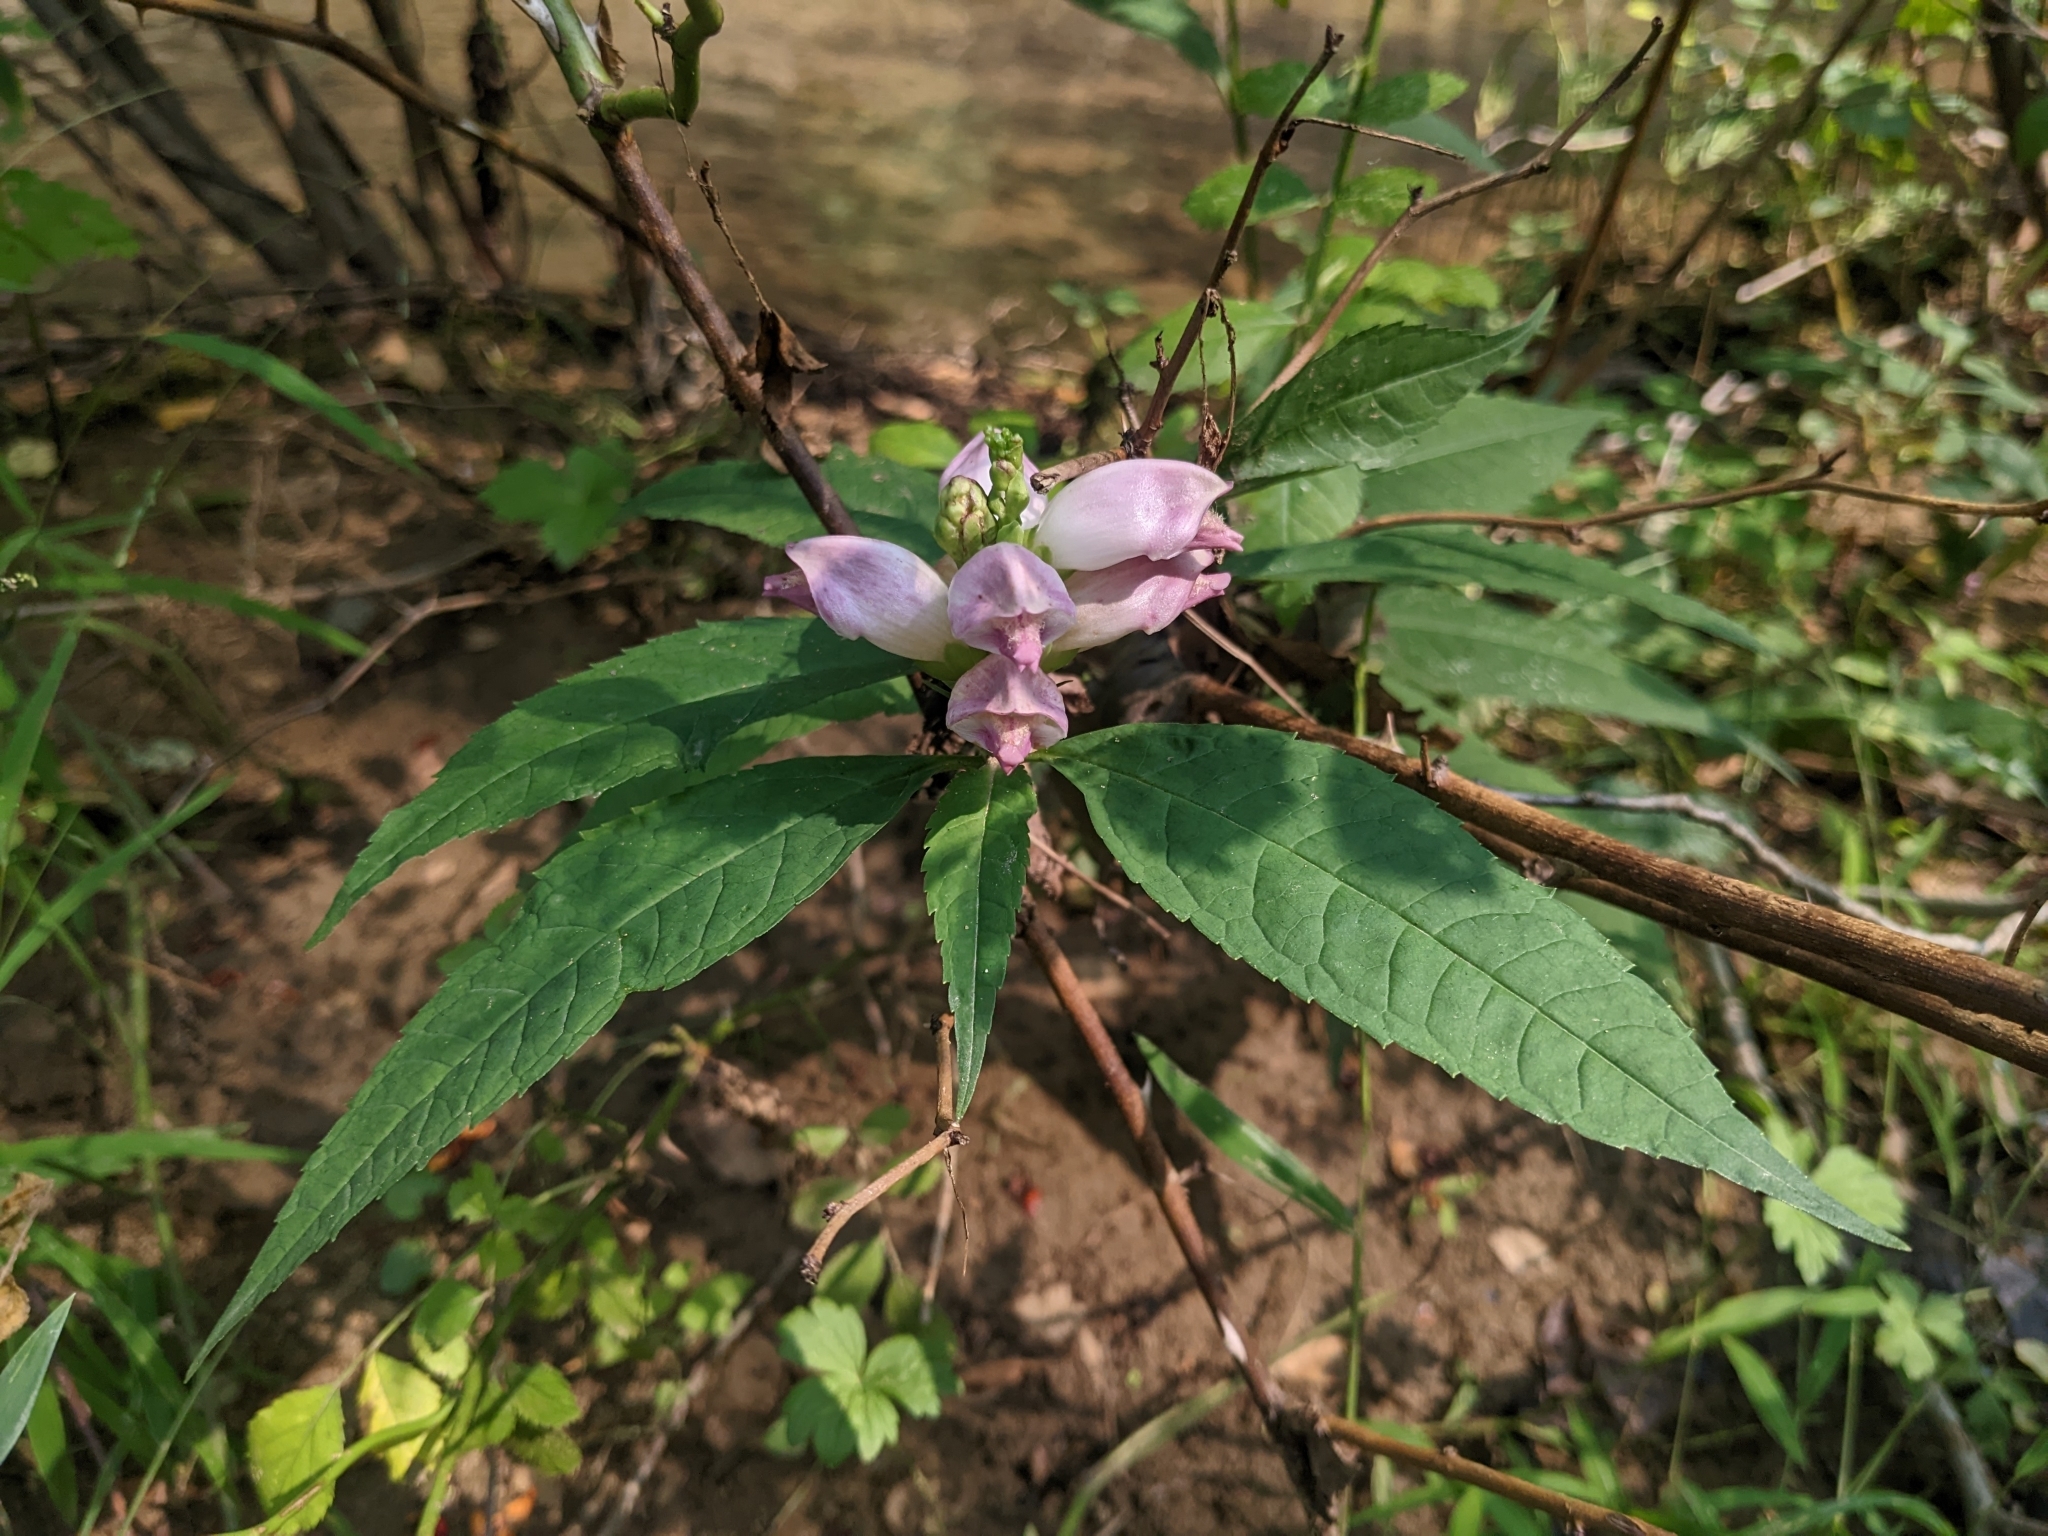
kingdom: Plantae
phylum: Tracheophyta
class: Magnoliopsida
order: Lamiales
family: Plantaginaceae
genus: Chelone
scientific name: Chelone lyonii
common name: Pink turtlehead
